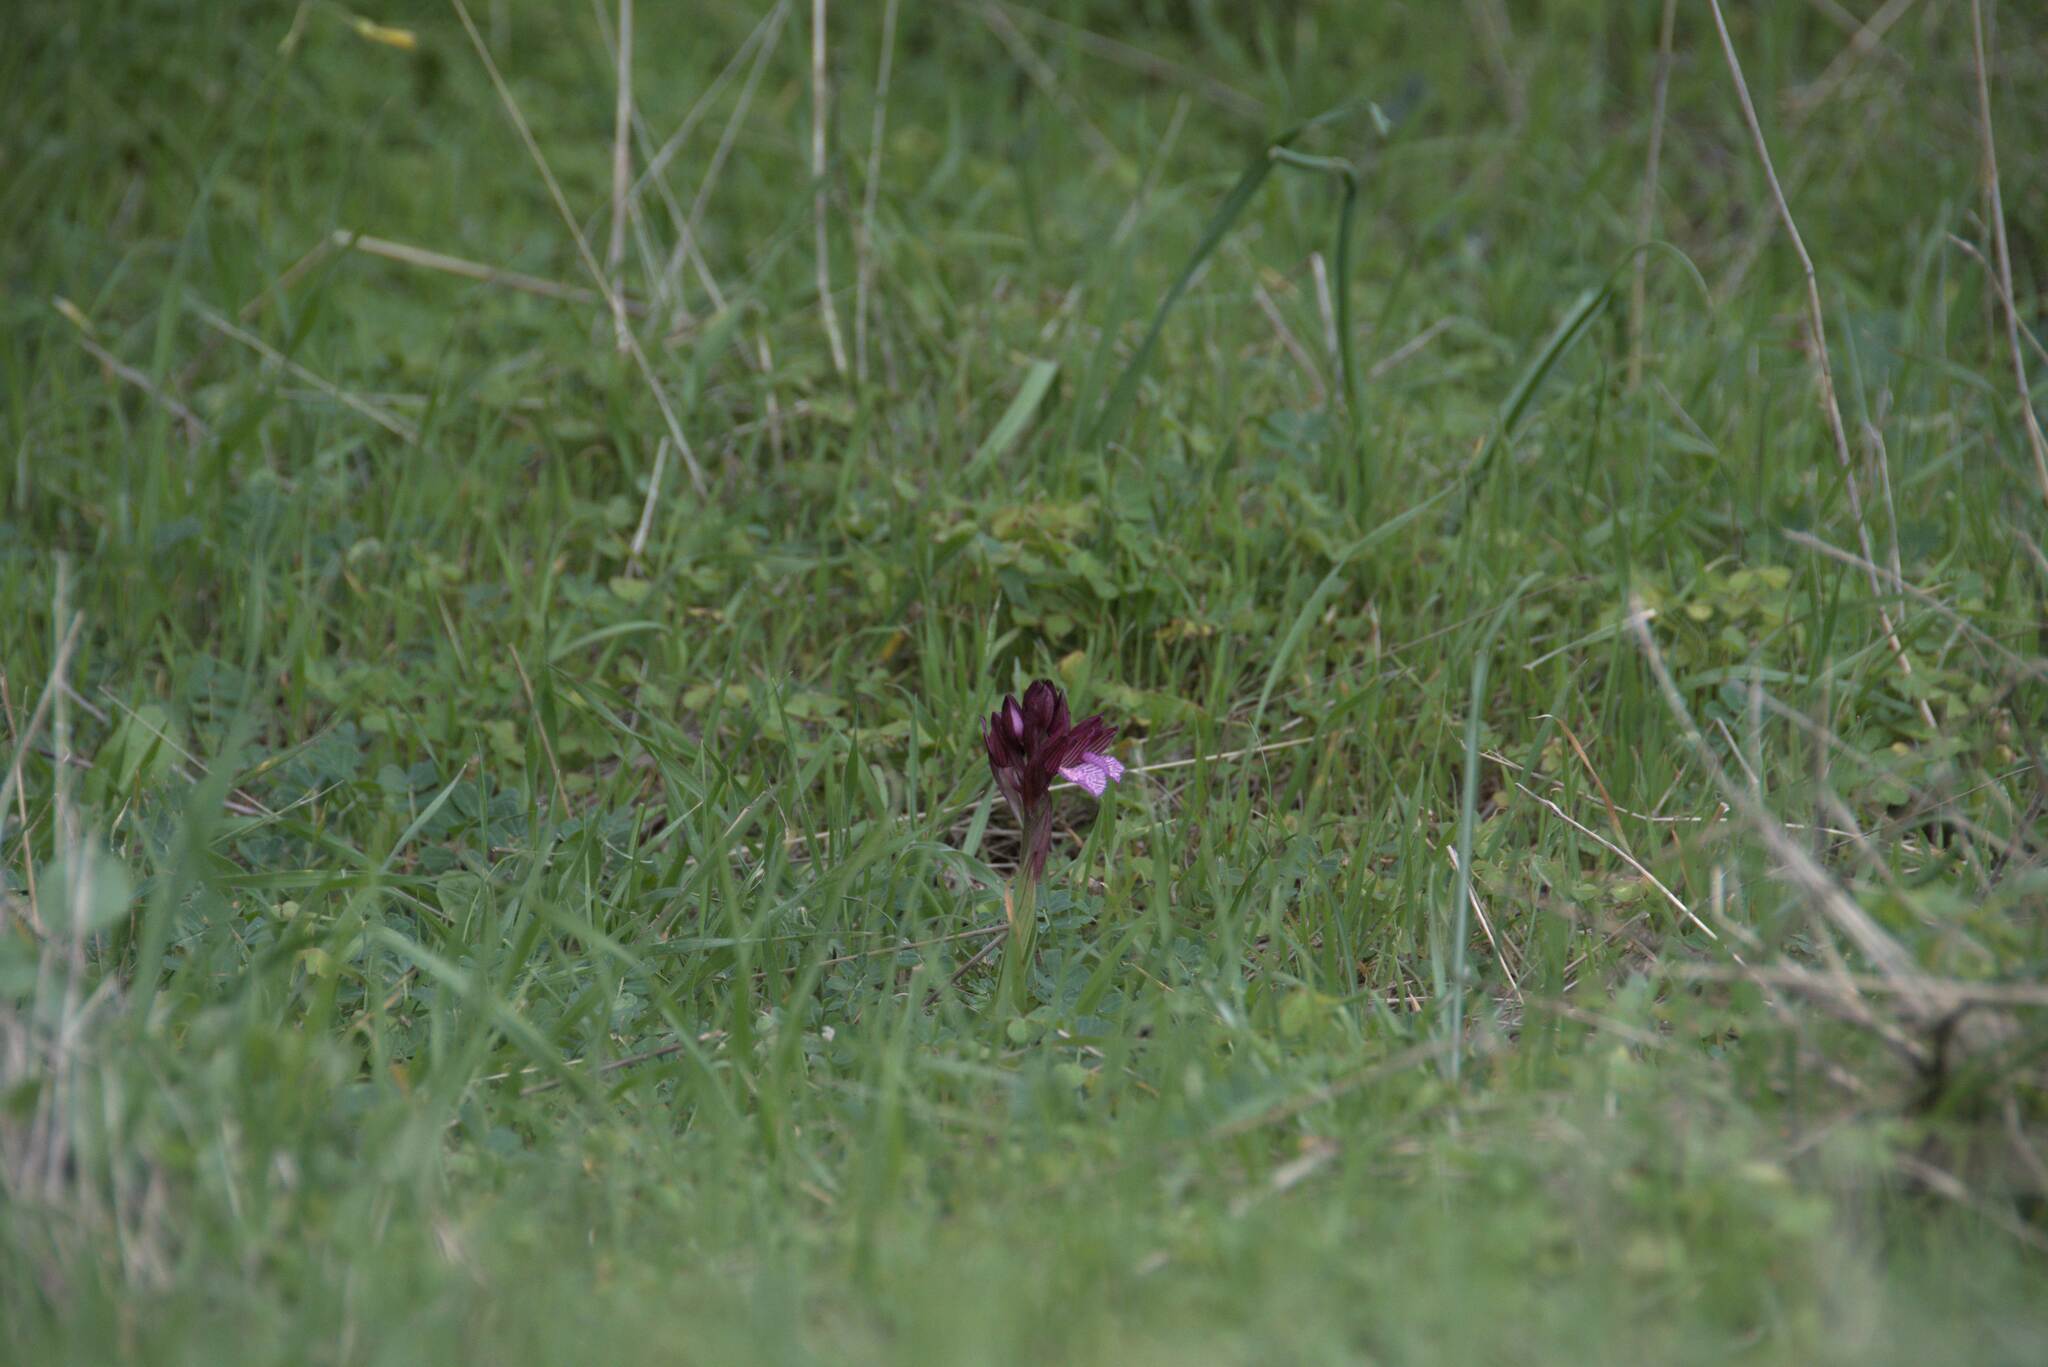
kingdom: Plantae
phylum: Tracheophyta
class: Liliopsida
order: Asparagales
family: Orchidaceae
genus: Anacamptis
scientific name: Anacamptis papilionacea
